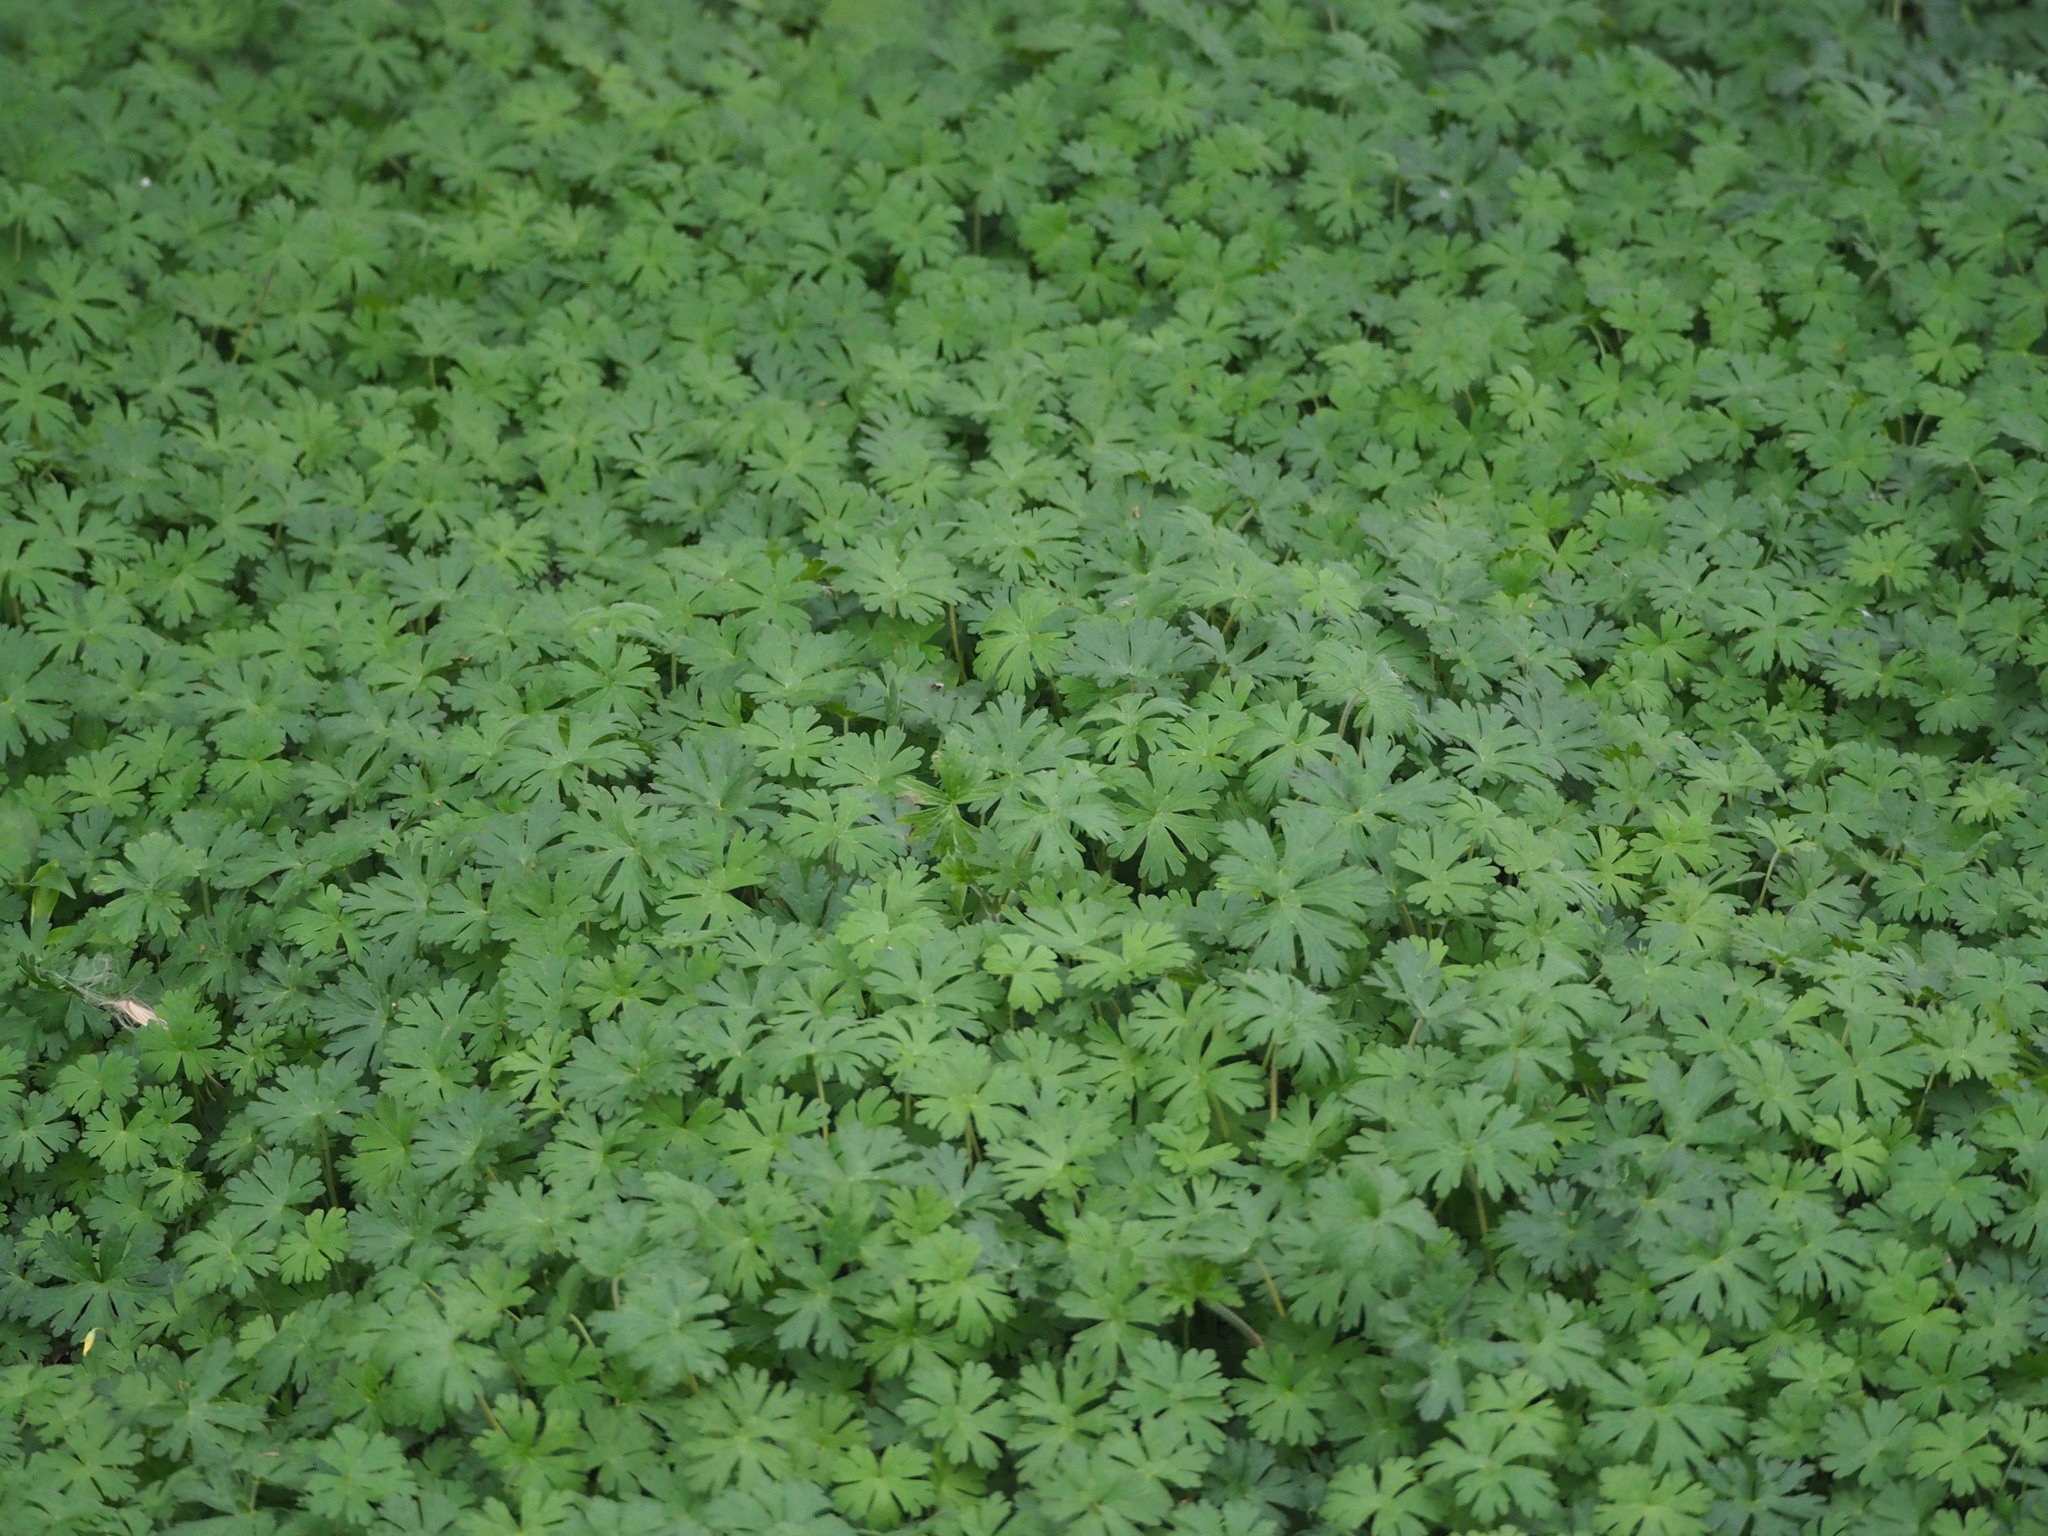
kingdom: Plantae
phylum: Tracheophyta
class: Magnoliopsida
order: Geraniales
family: Geraniaceae
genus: Geranium
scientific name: Geranium carolinianum
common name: Carolina crane's-bill
